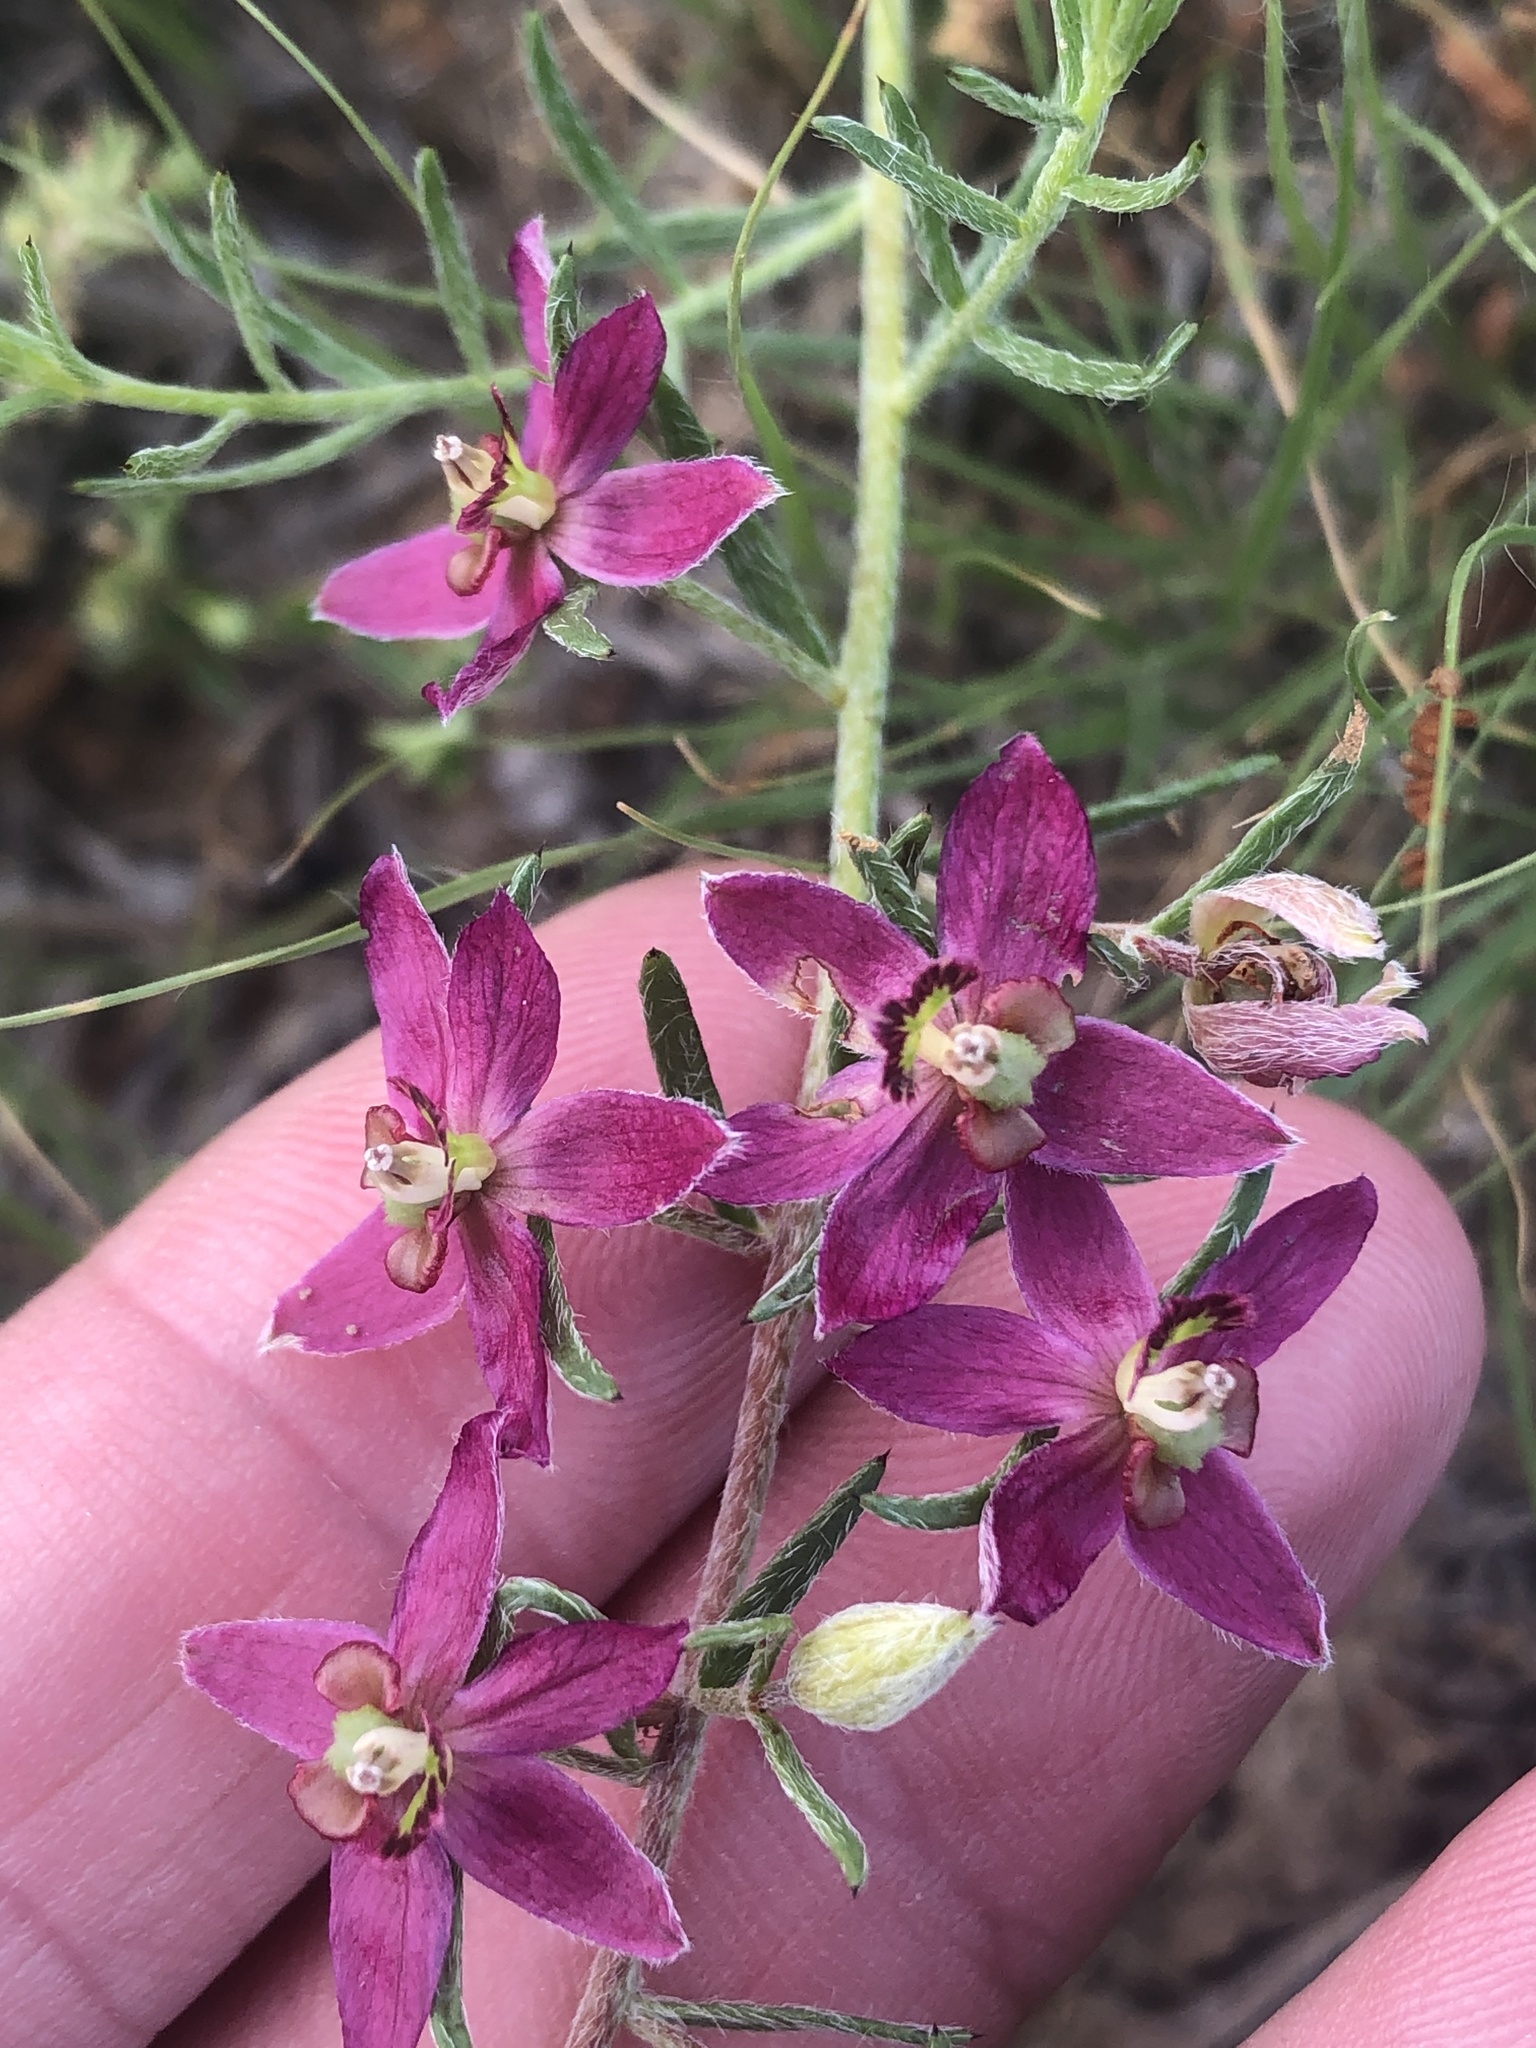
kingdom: Plantae
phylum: Tracheophyta
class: Magnoliopsida
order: Zygophyllales
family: Krameriaceae
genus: Krameria
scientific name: Krameria lanceolata
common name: Ratany
